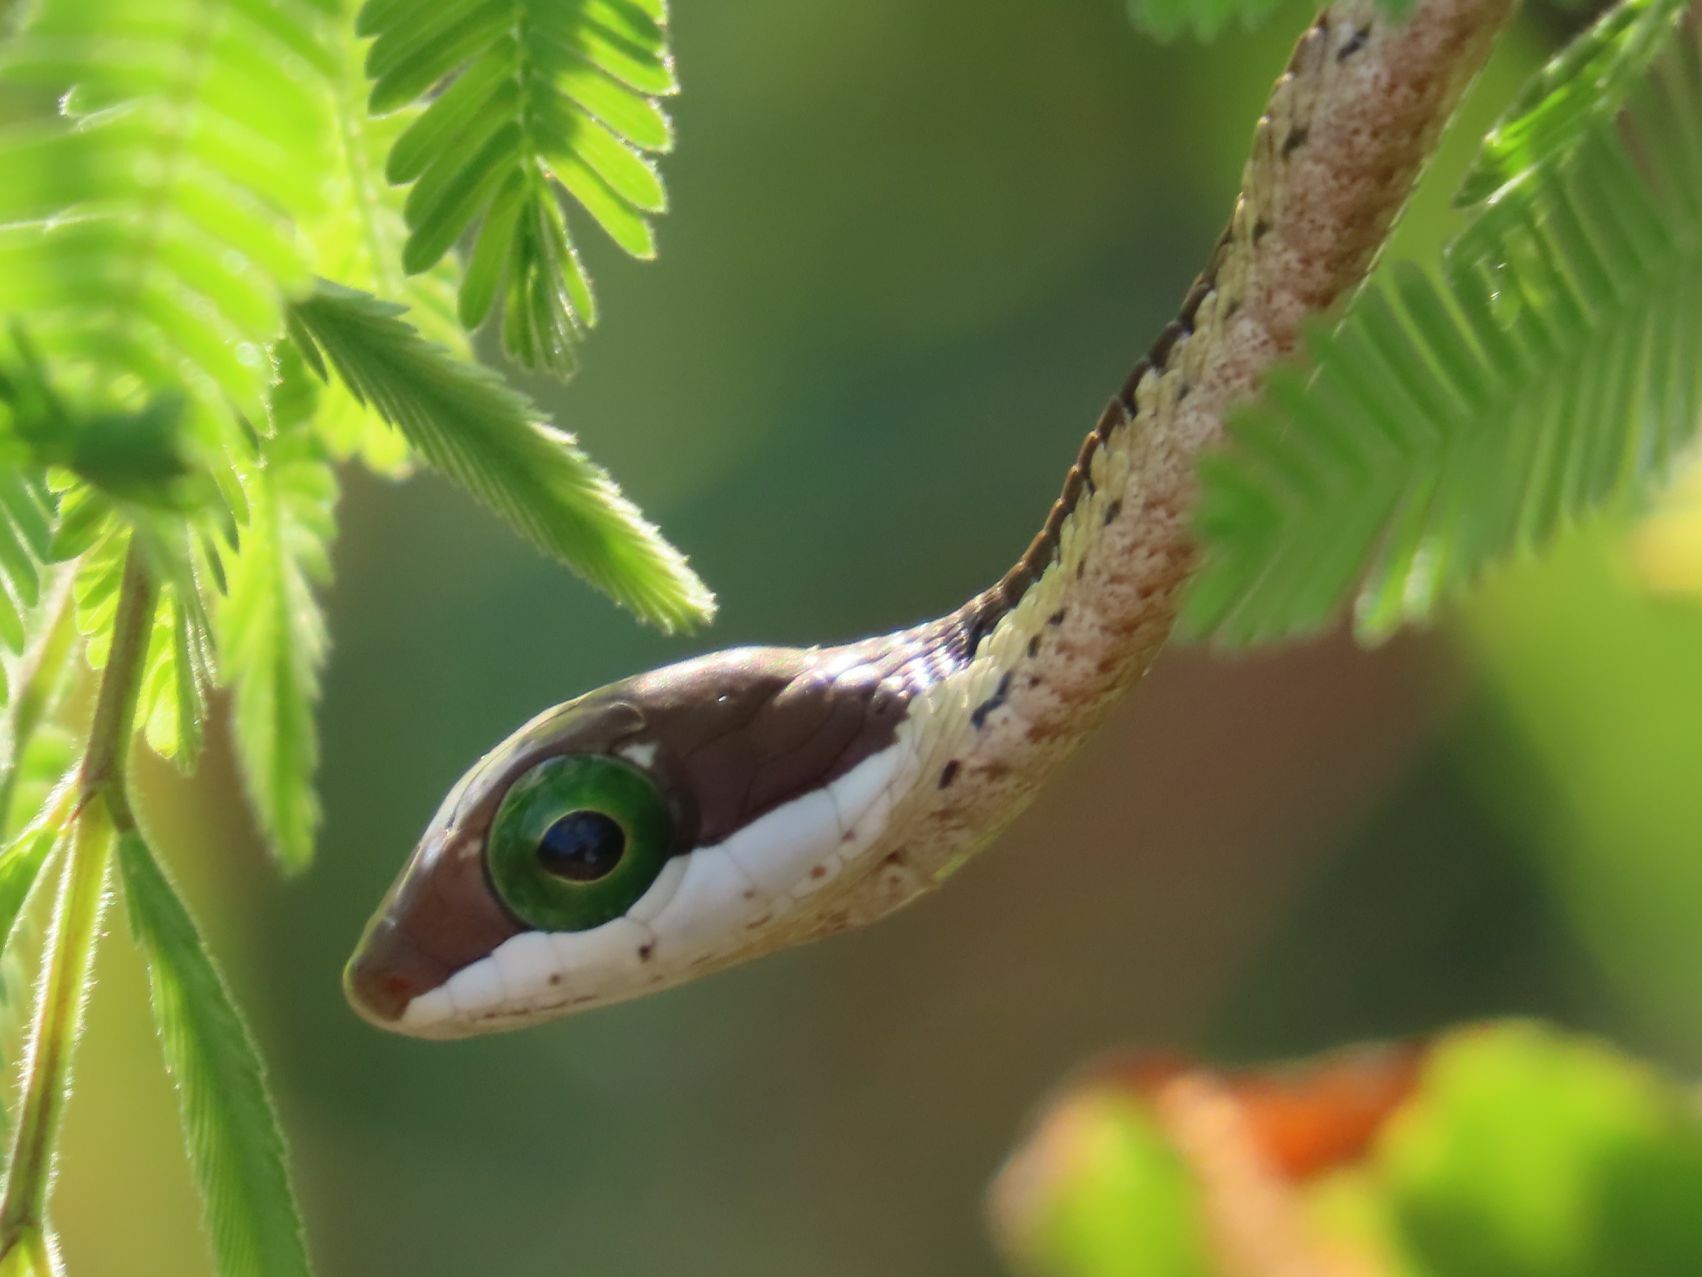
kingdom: Animalia
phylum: Chordata
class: Squamata
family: Colubridae
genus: Dispholidus
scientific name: Dispholidus typus
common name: Boomslang
